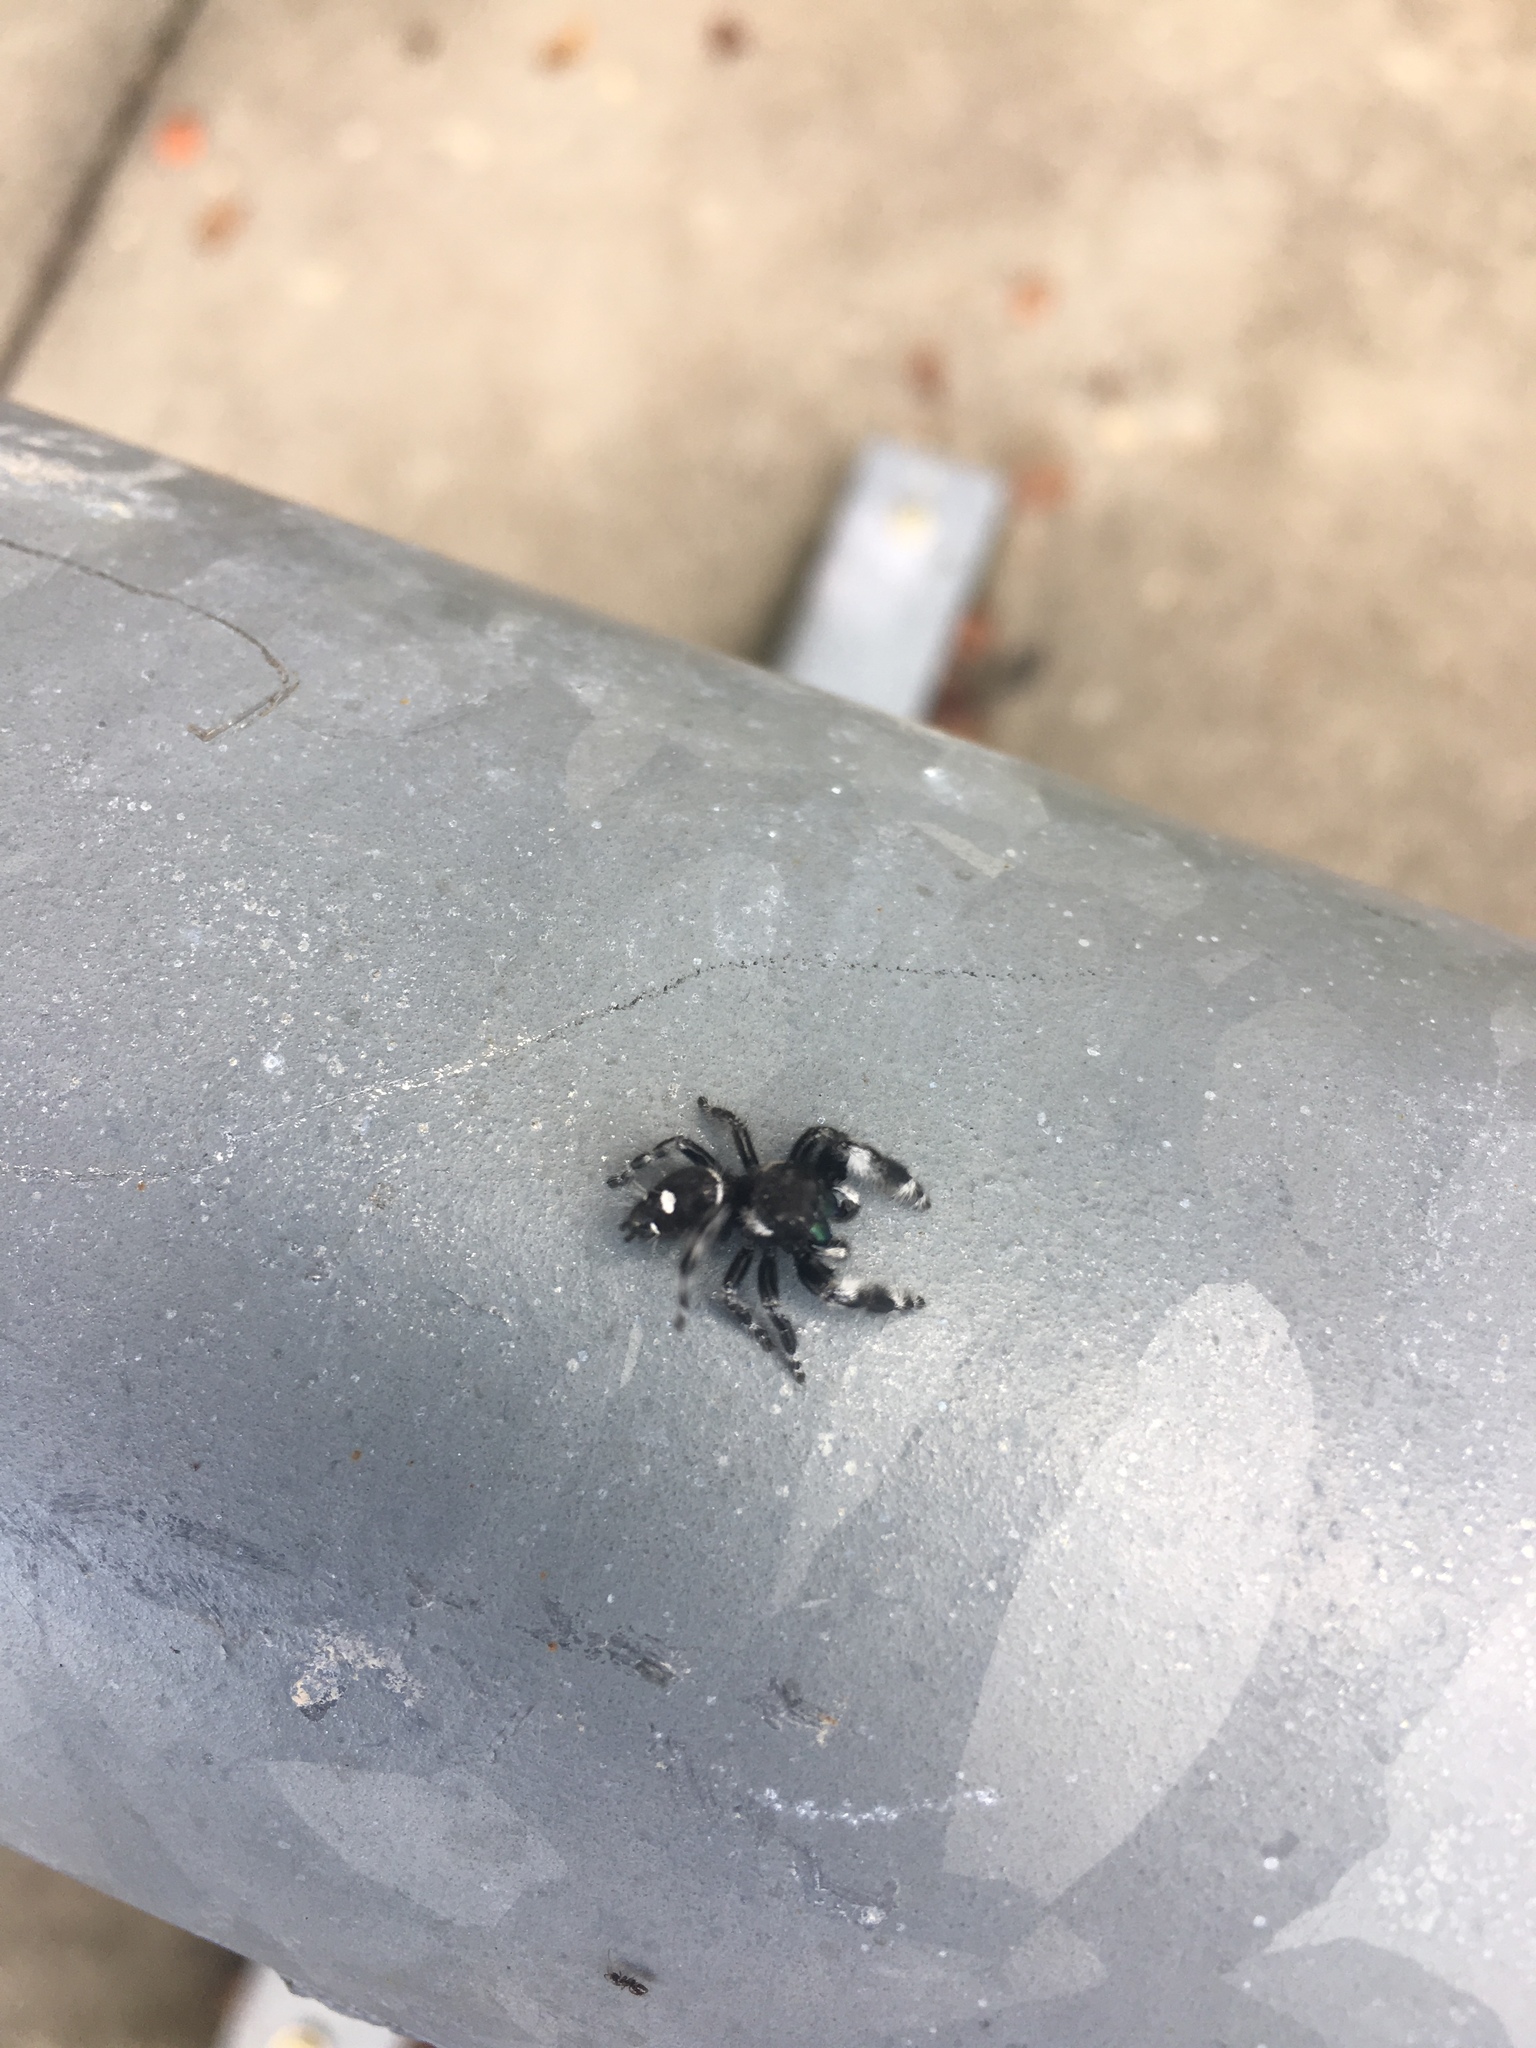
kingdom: Animalia
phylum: Arthropoda
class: Arachnida
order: Araneae
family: Salticidae
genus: Phidippus
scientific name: Phidippus audax
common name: Bold jumper
